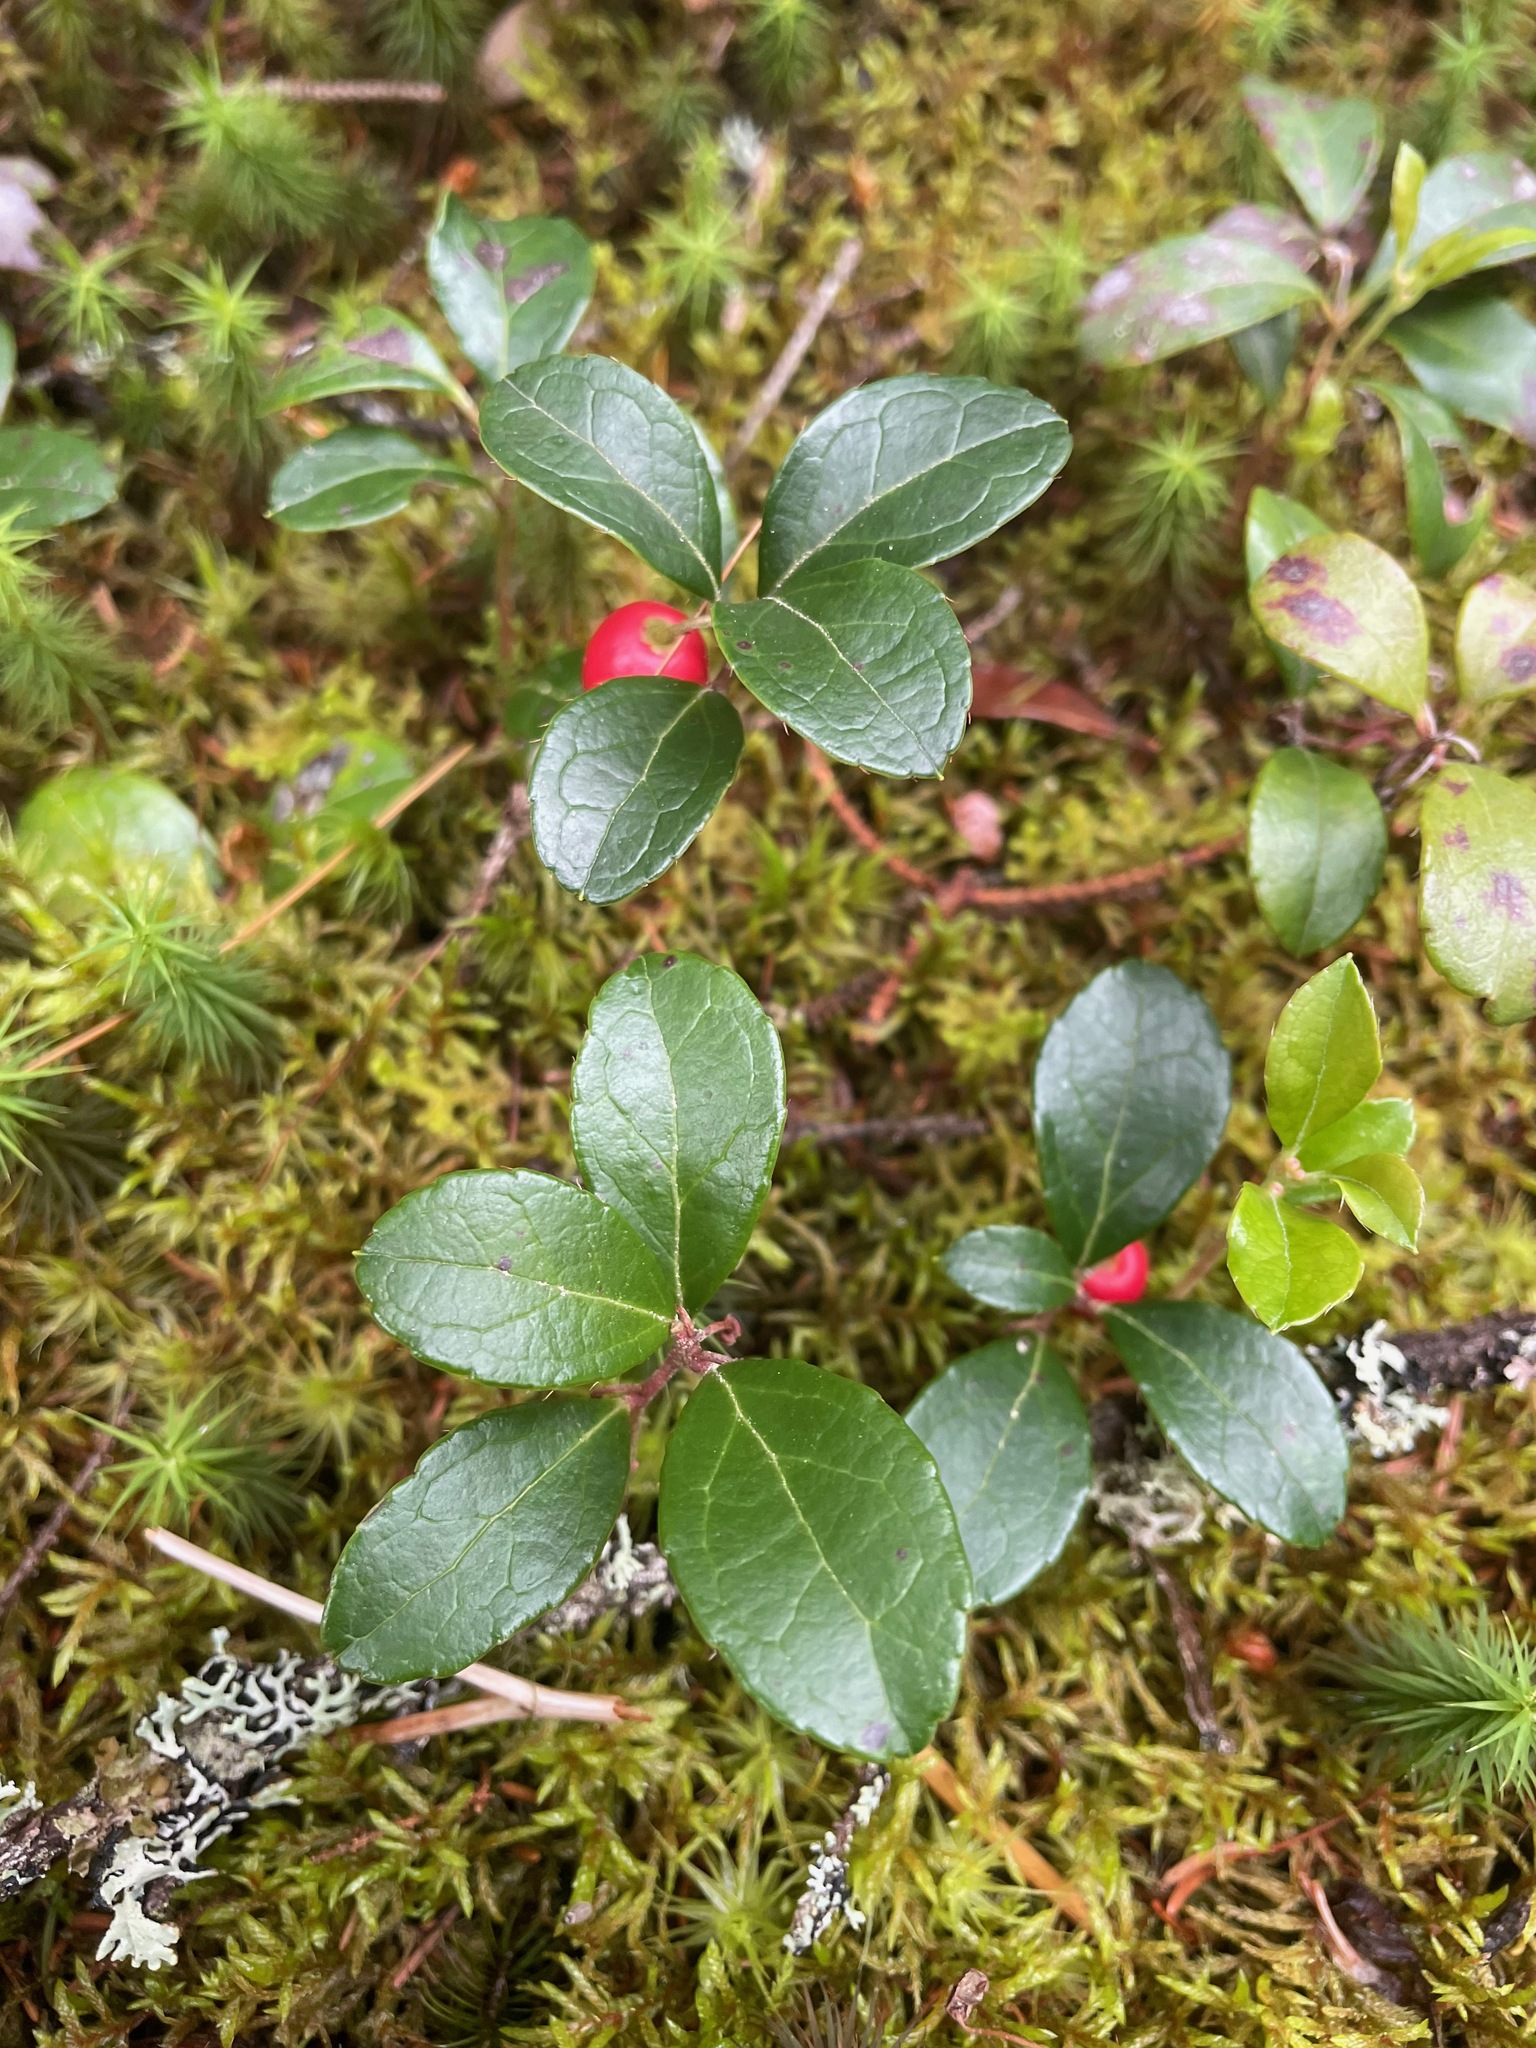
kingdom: Plantae
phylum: Tracheophyta
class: Magnoliopsida
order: Ericales
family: Ericaceae
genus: Gaultheria
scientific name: Gaultheria procumbens
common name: Checkerberry
